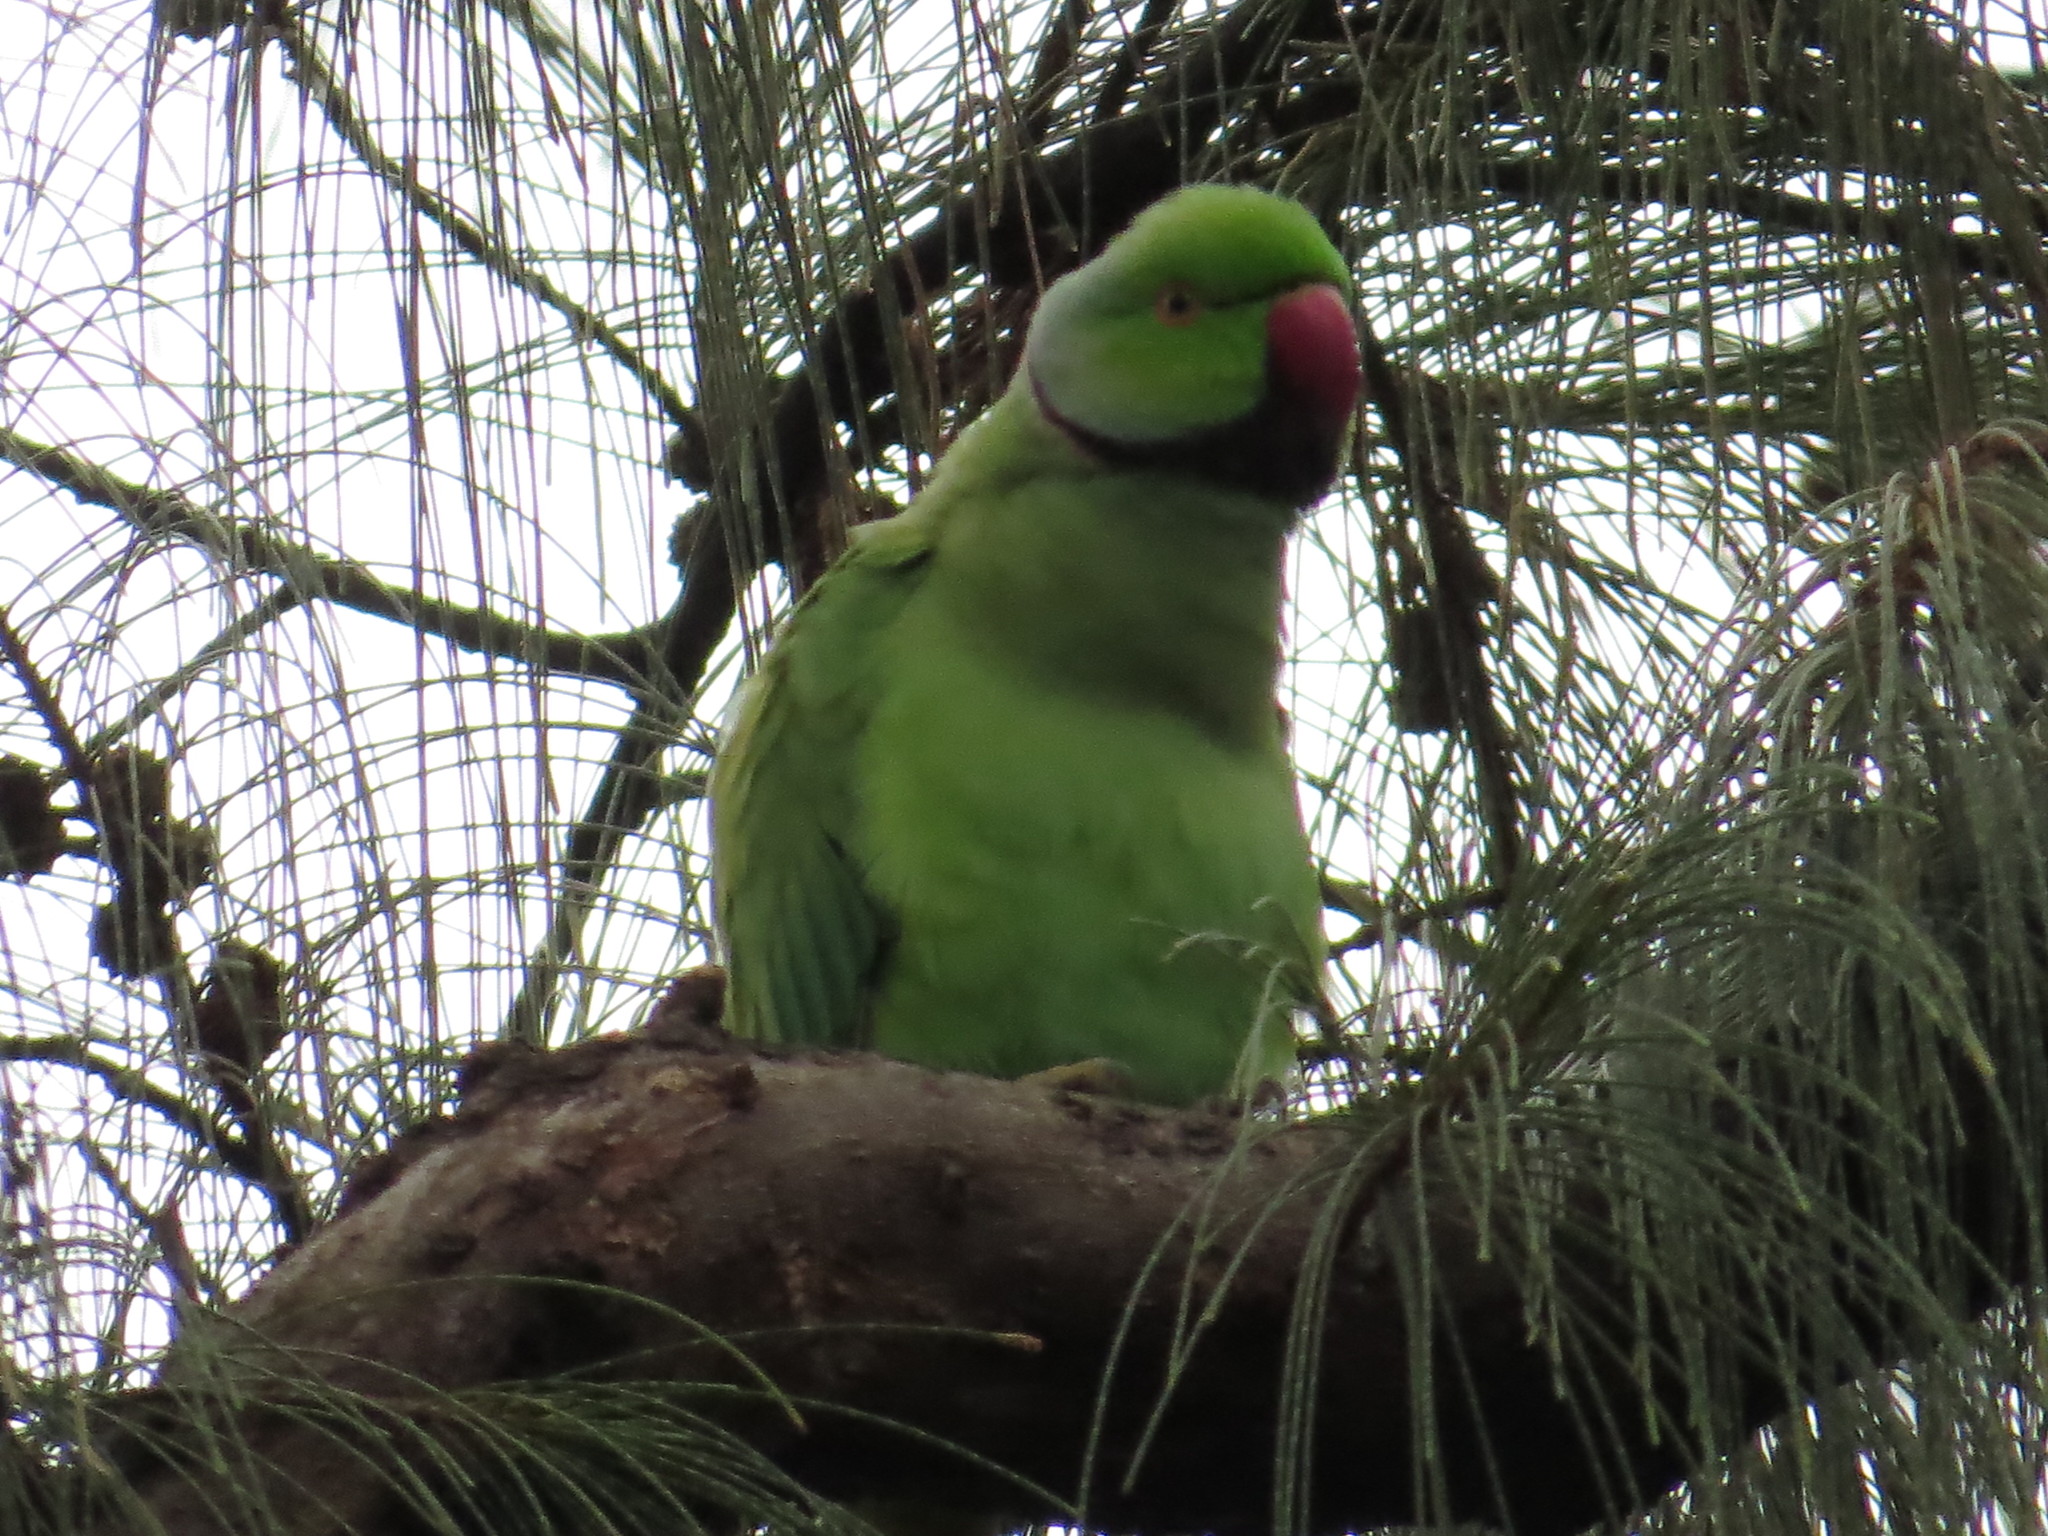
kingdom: Animalia
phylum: Chordata
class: Aves
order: Psittaciformes
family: Psittacidae
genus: Psittacula
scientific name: Psittacula krameri
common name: Rose-ringed parakeet
